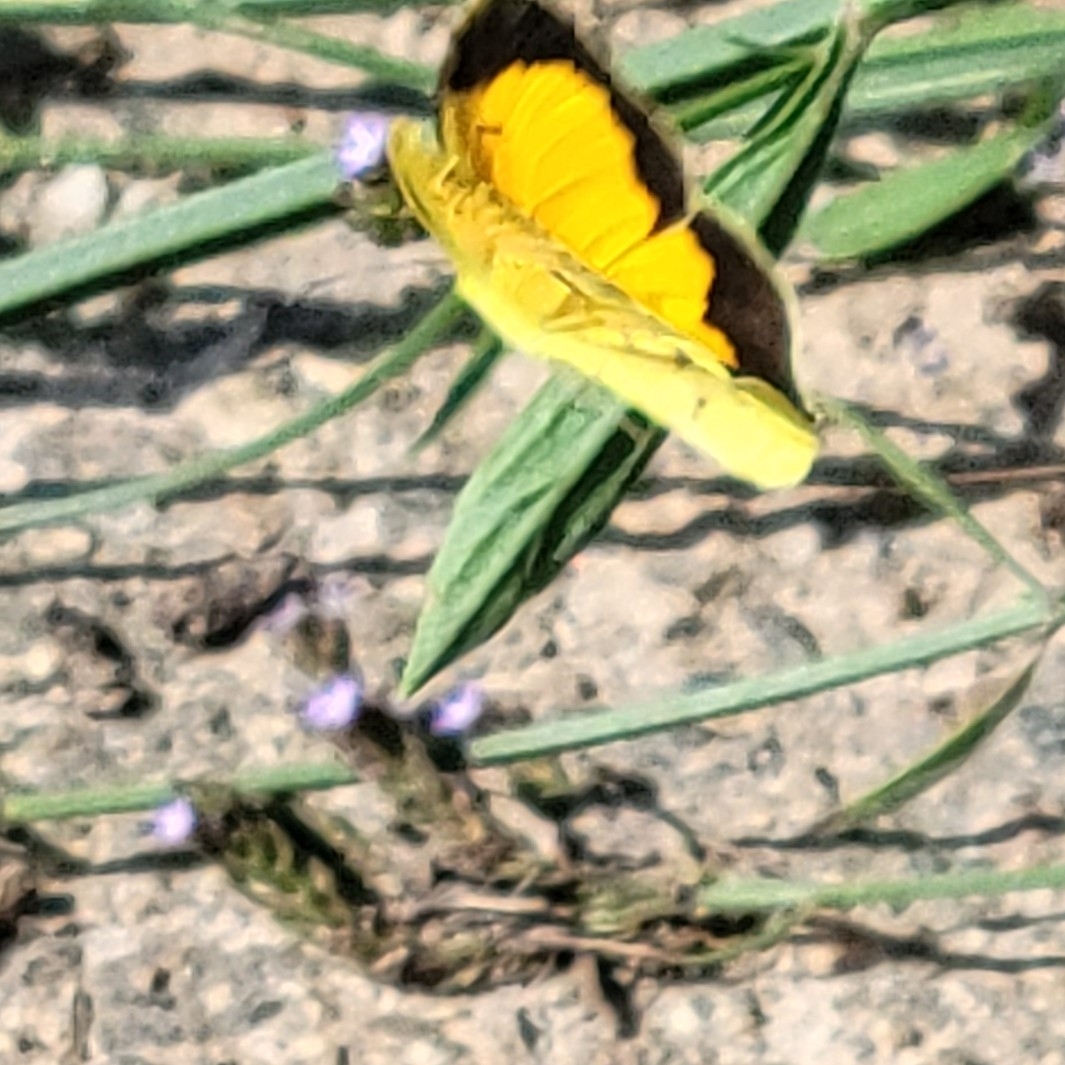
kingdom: Animalia
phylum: Arthropoda
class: Insecta
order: Lepidoptera
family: Pieridae
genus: Abaeis
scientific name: Abaeis nicippe
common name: Sleepy orange
